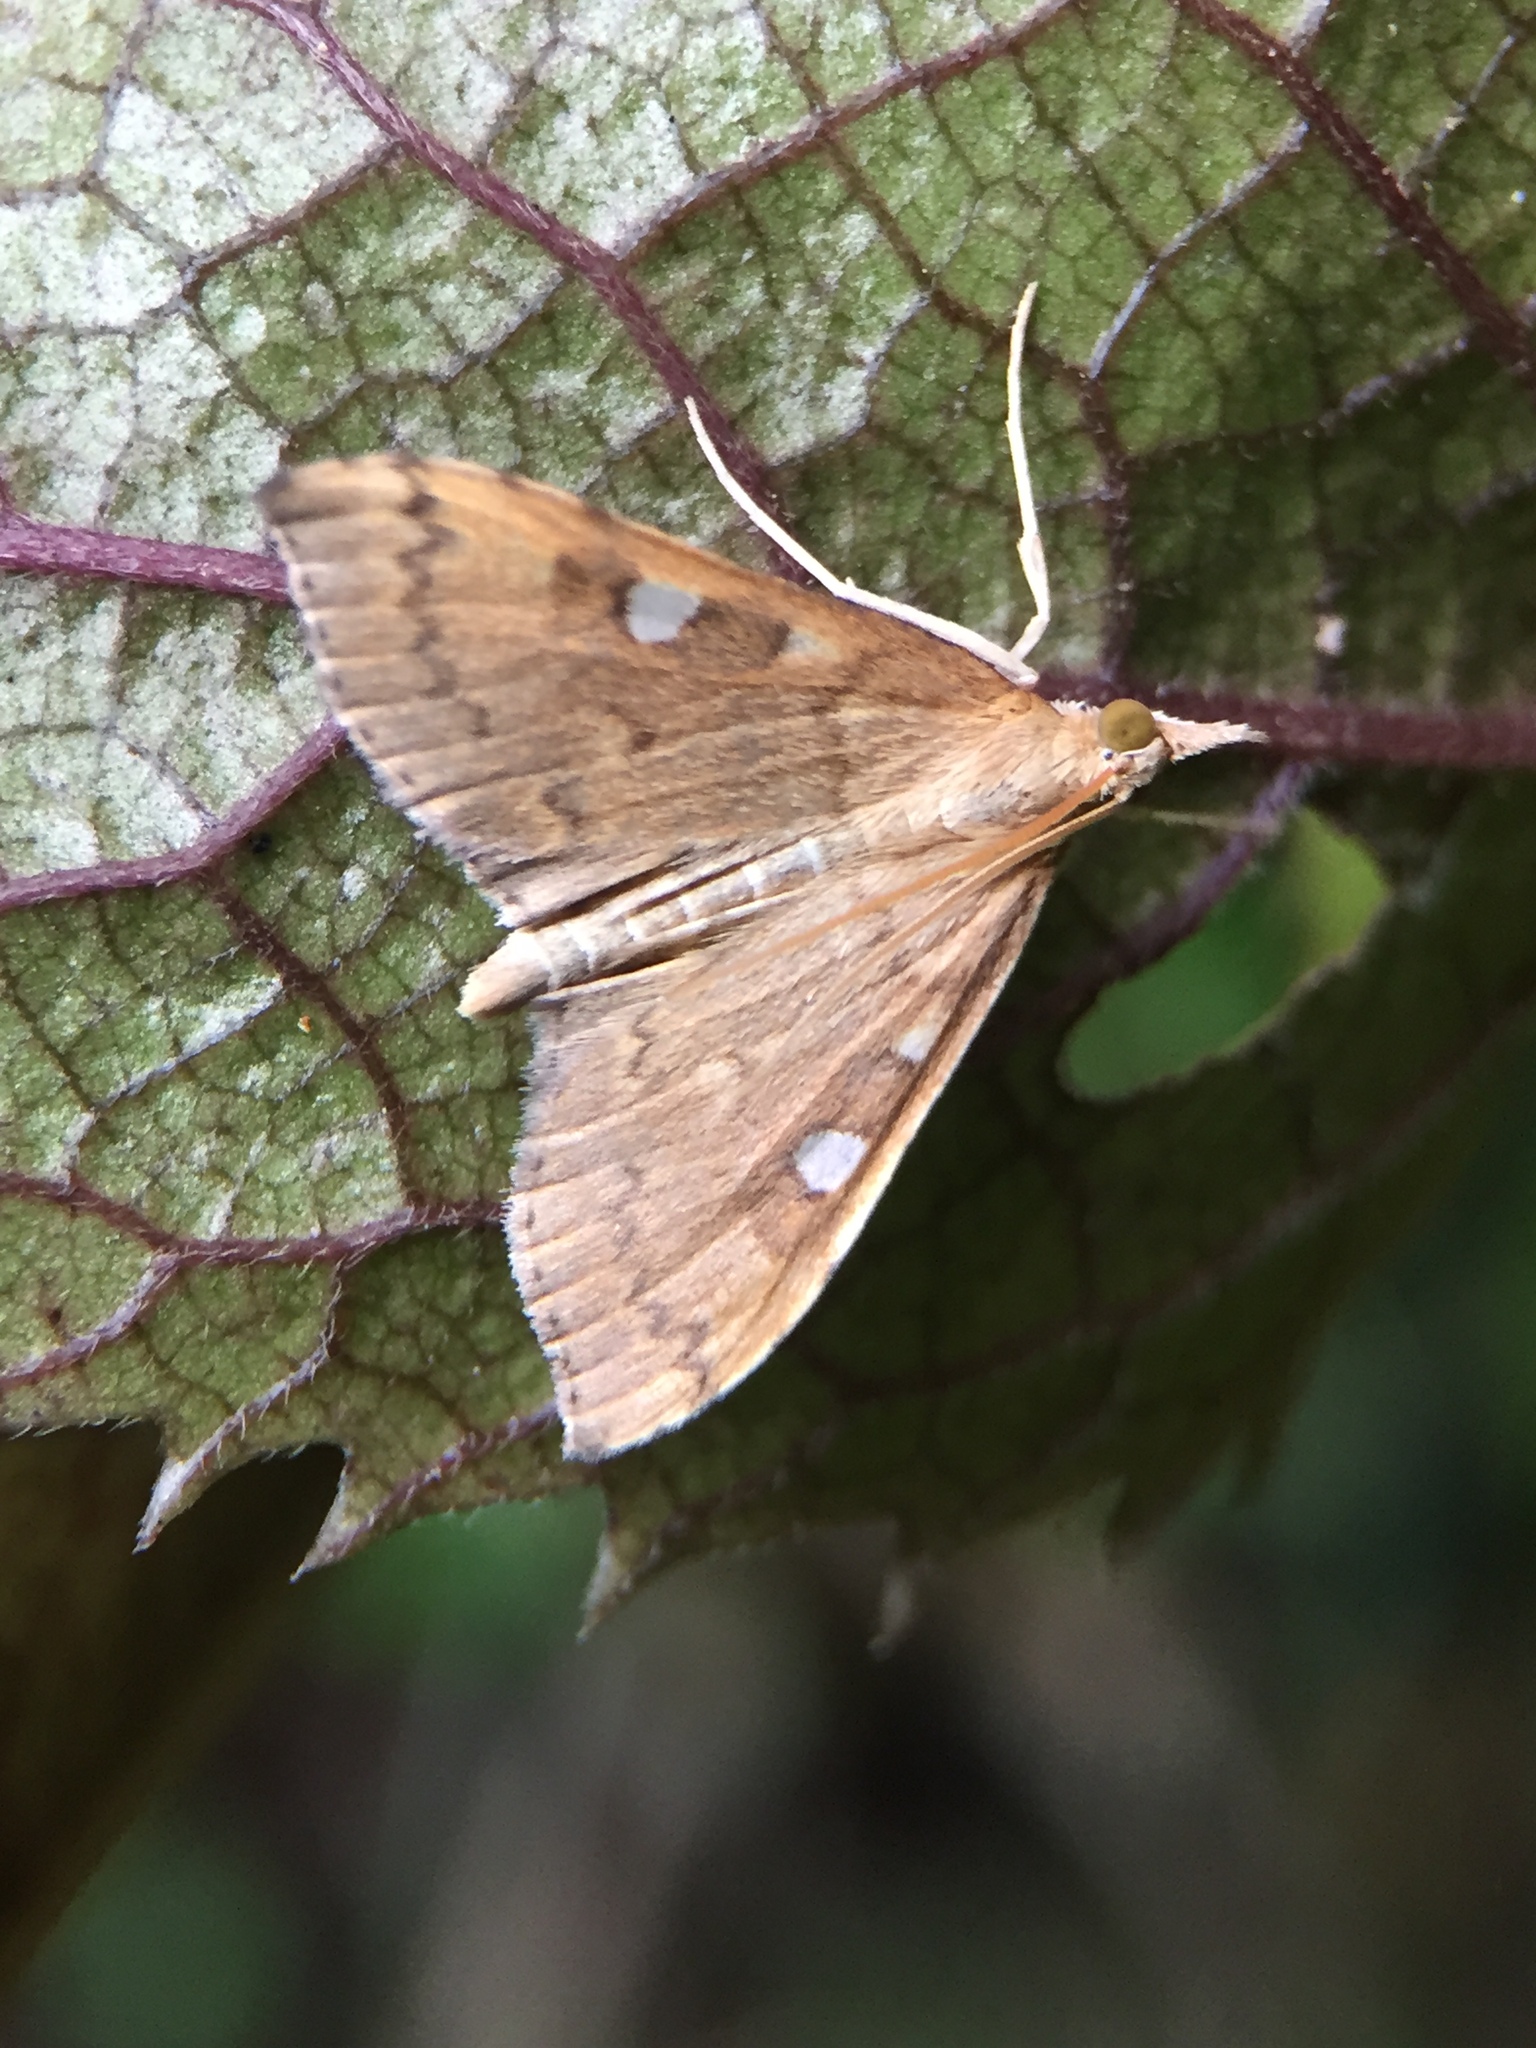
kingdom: Animalia
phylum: Arthropoda
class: Insecta
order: Lepidoptera
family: Crambidae
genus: Udea
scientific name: Udea Mnesictena marmarina
